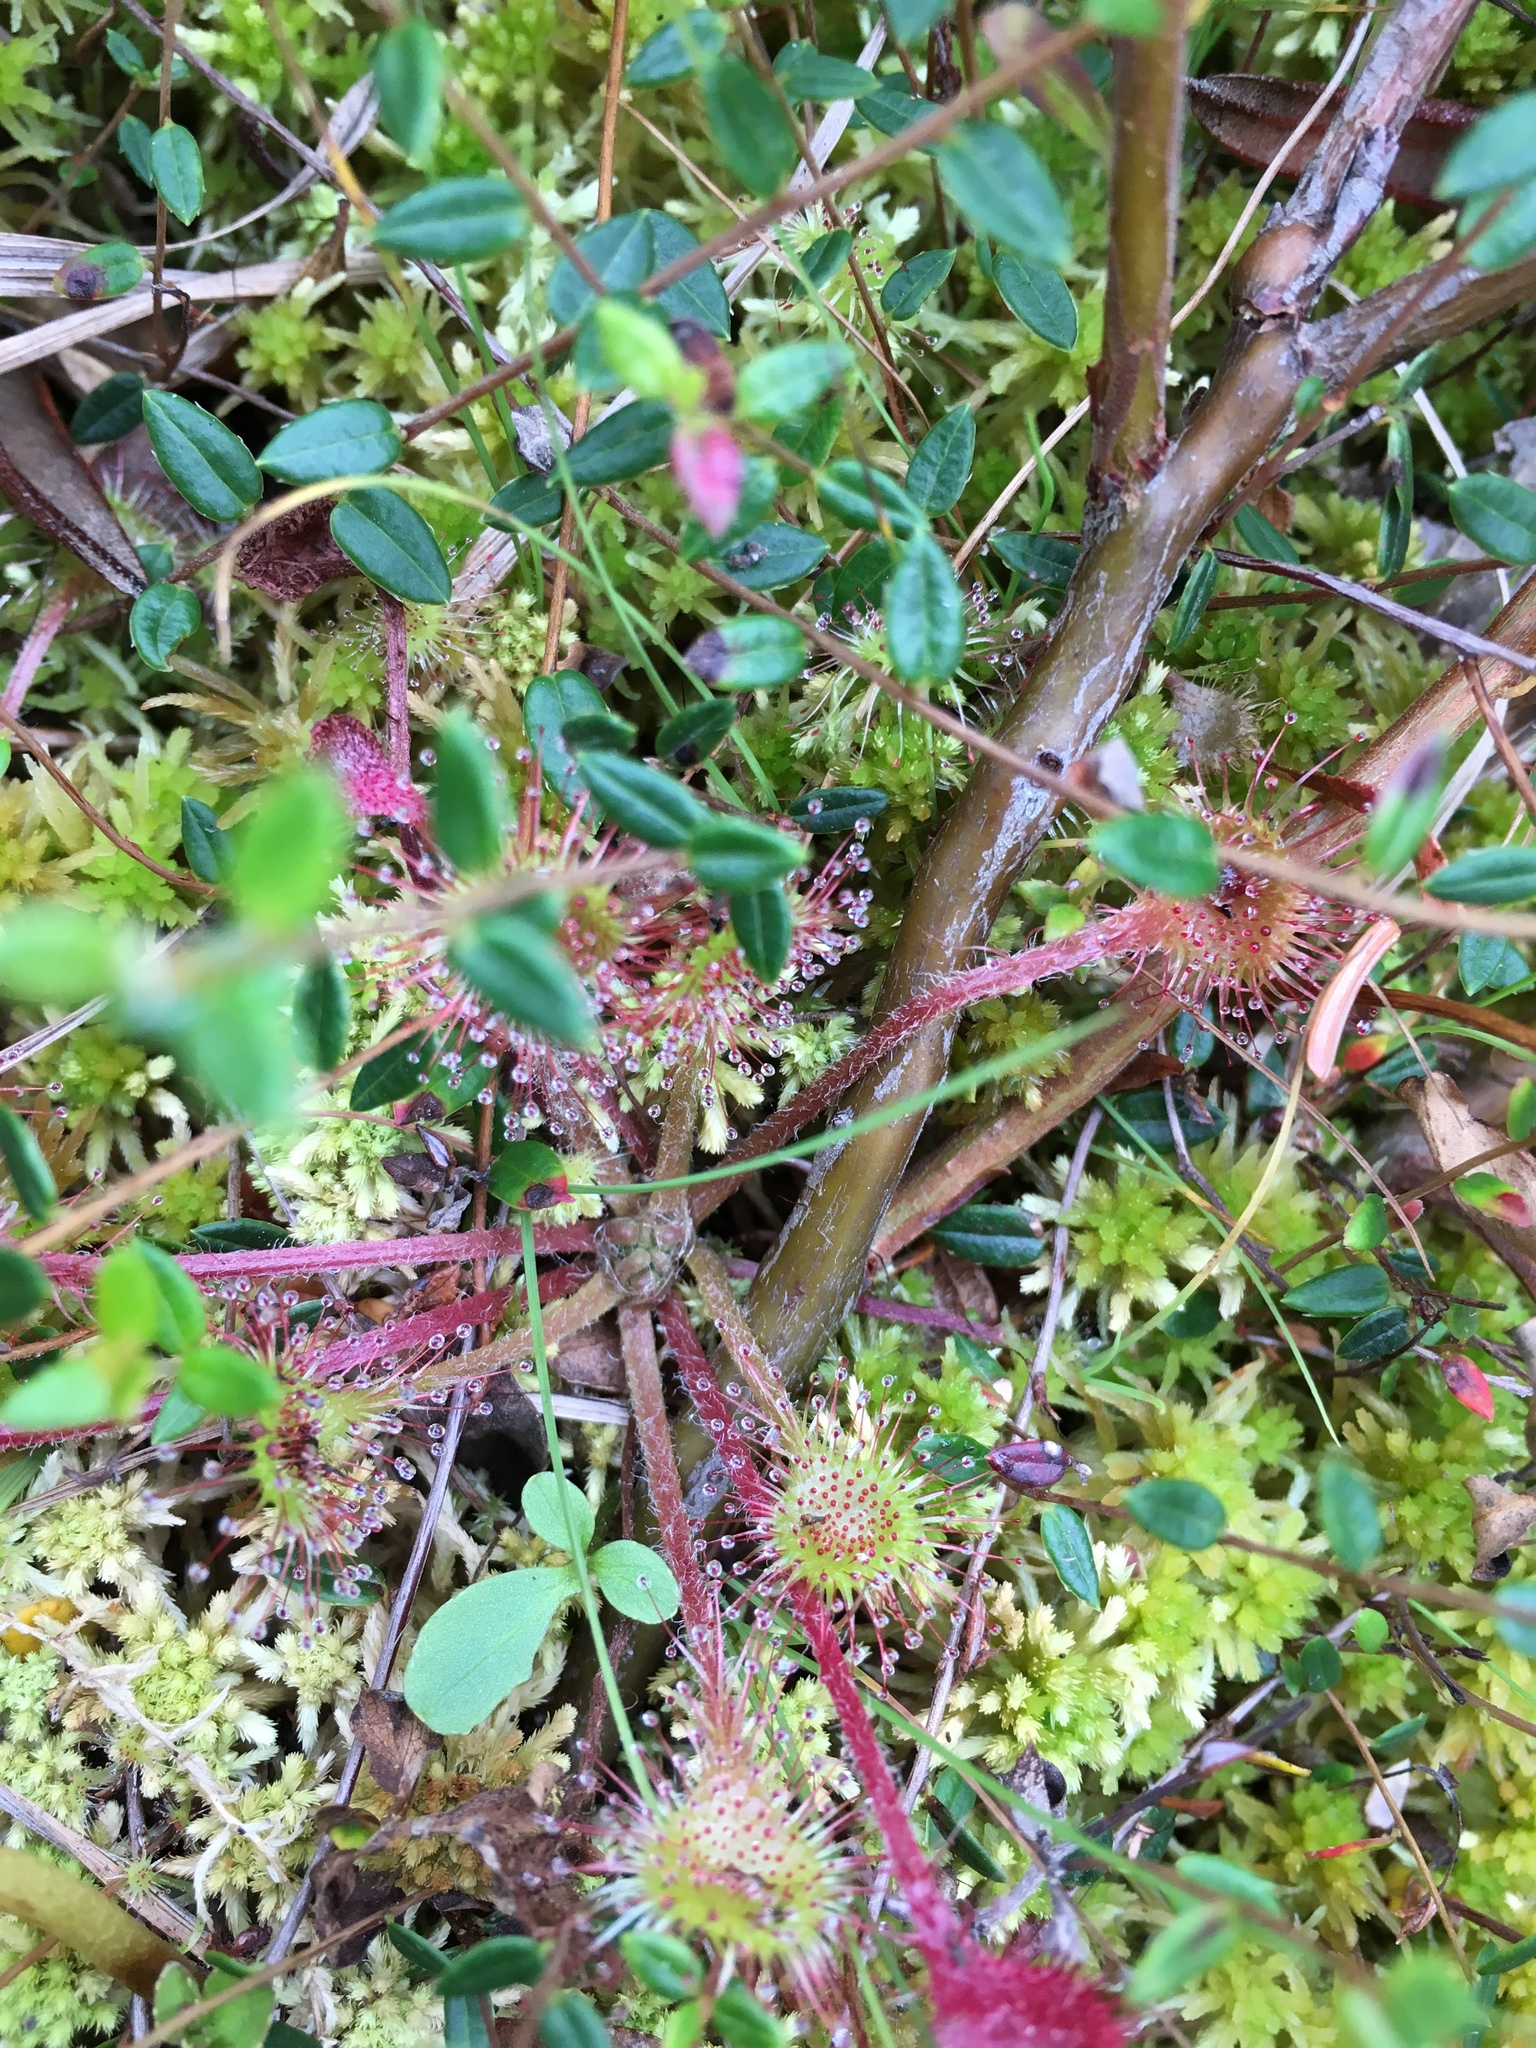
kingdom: Plantae
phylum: Tracheophyta
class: Magnoliopsida
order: Caryophyllales
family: Droseraceae
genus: Drosera
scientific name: Drosera rotundifolia
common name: Round-leaved sundew
